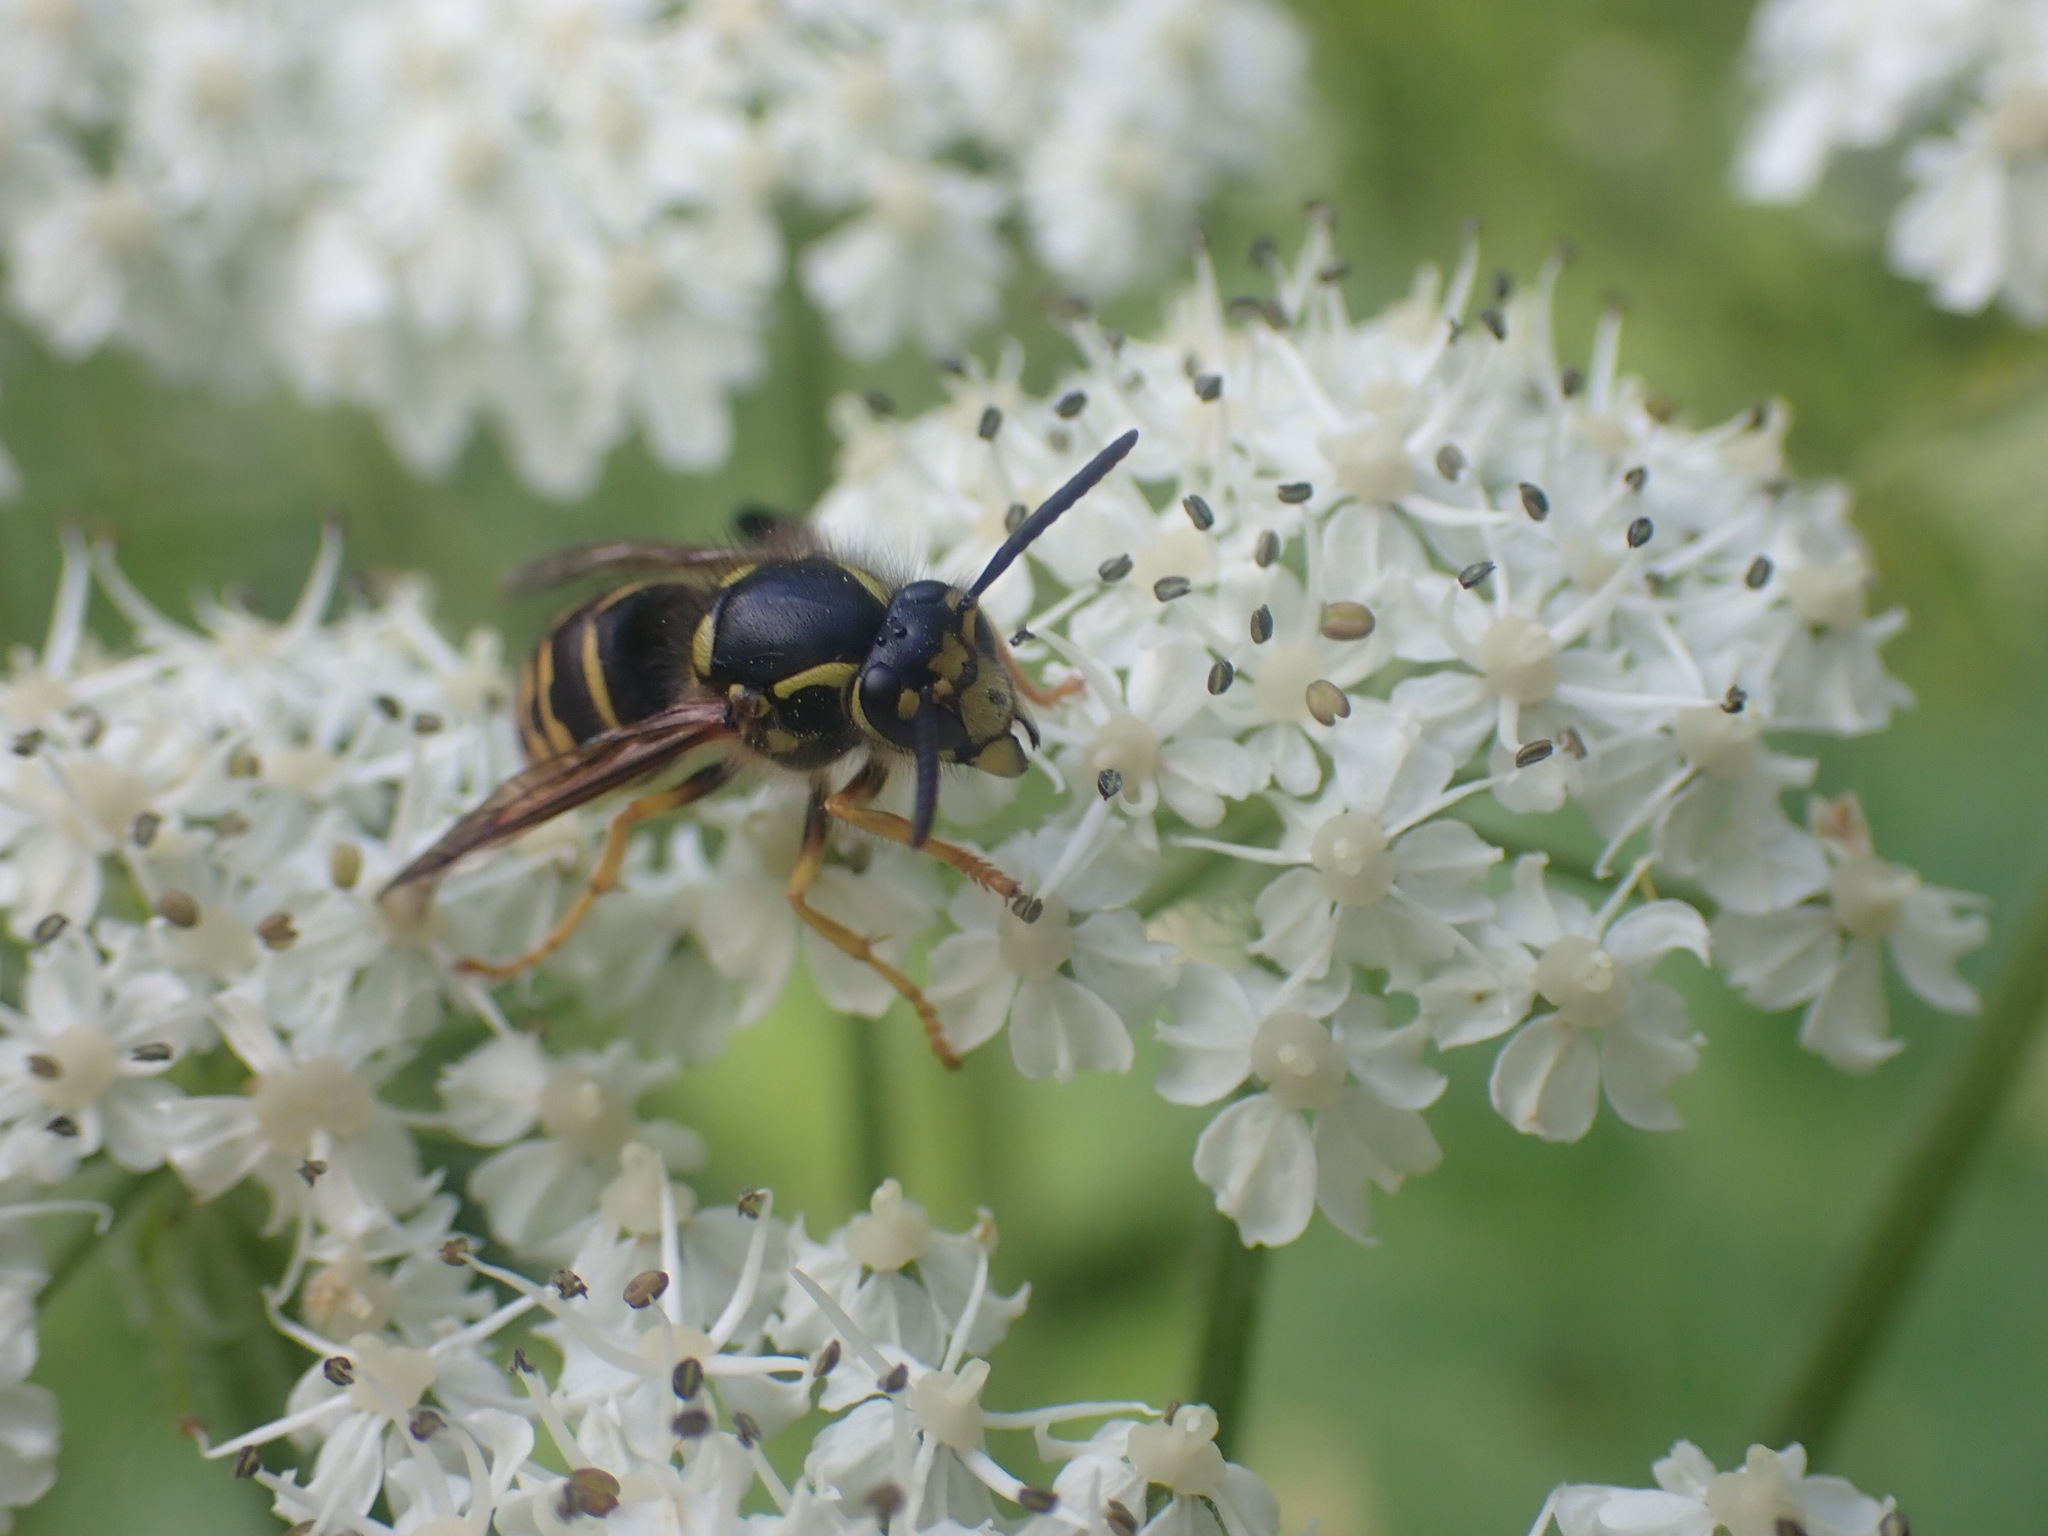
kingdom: Animalia
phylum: Arthropoda
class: Insecta
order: Hymenoptera
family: Vespidae
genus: Dolichovespula
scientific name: Dolichovespula arenaria
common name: Aerial yellowjacket
